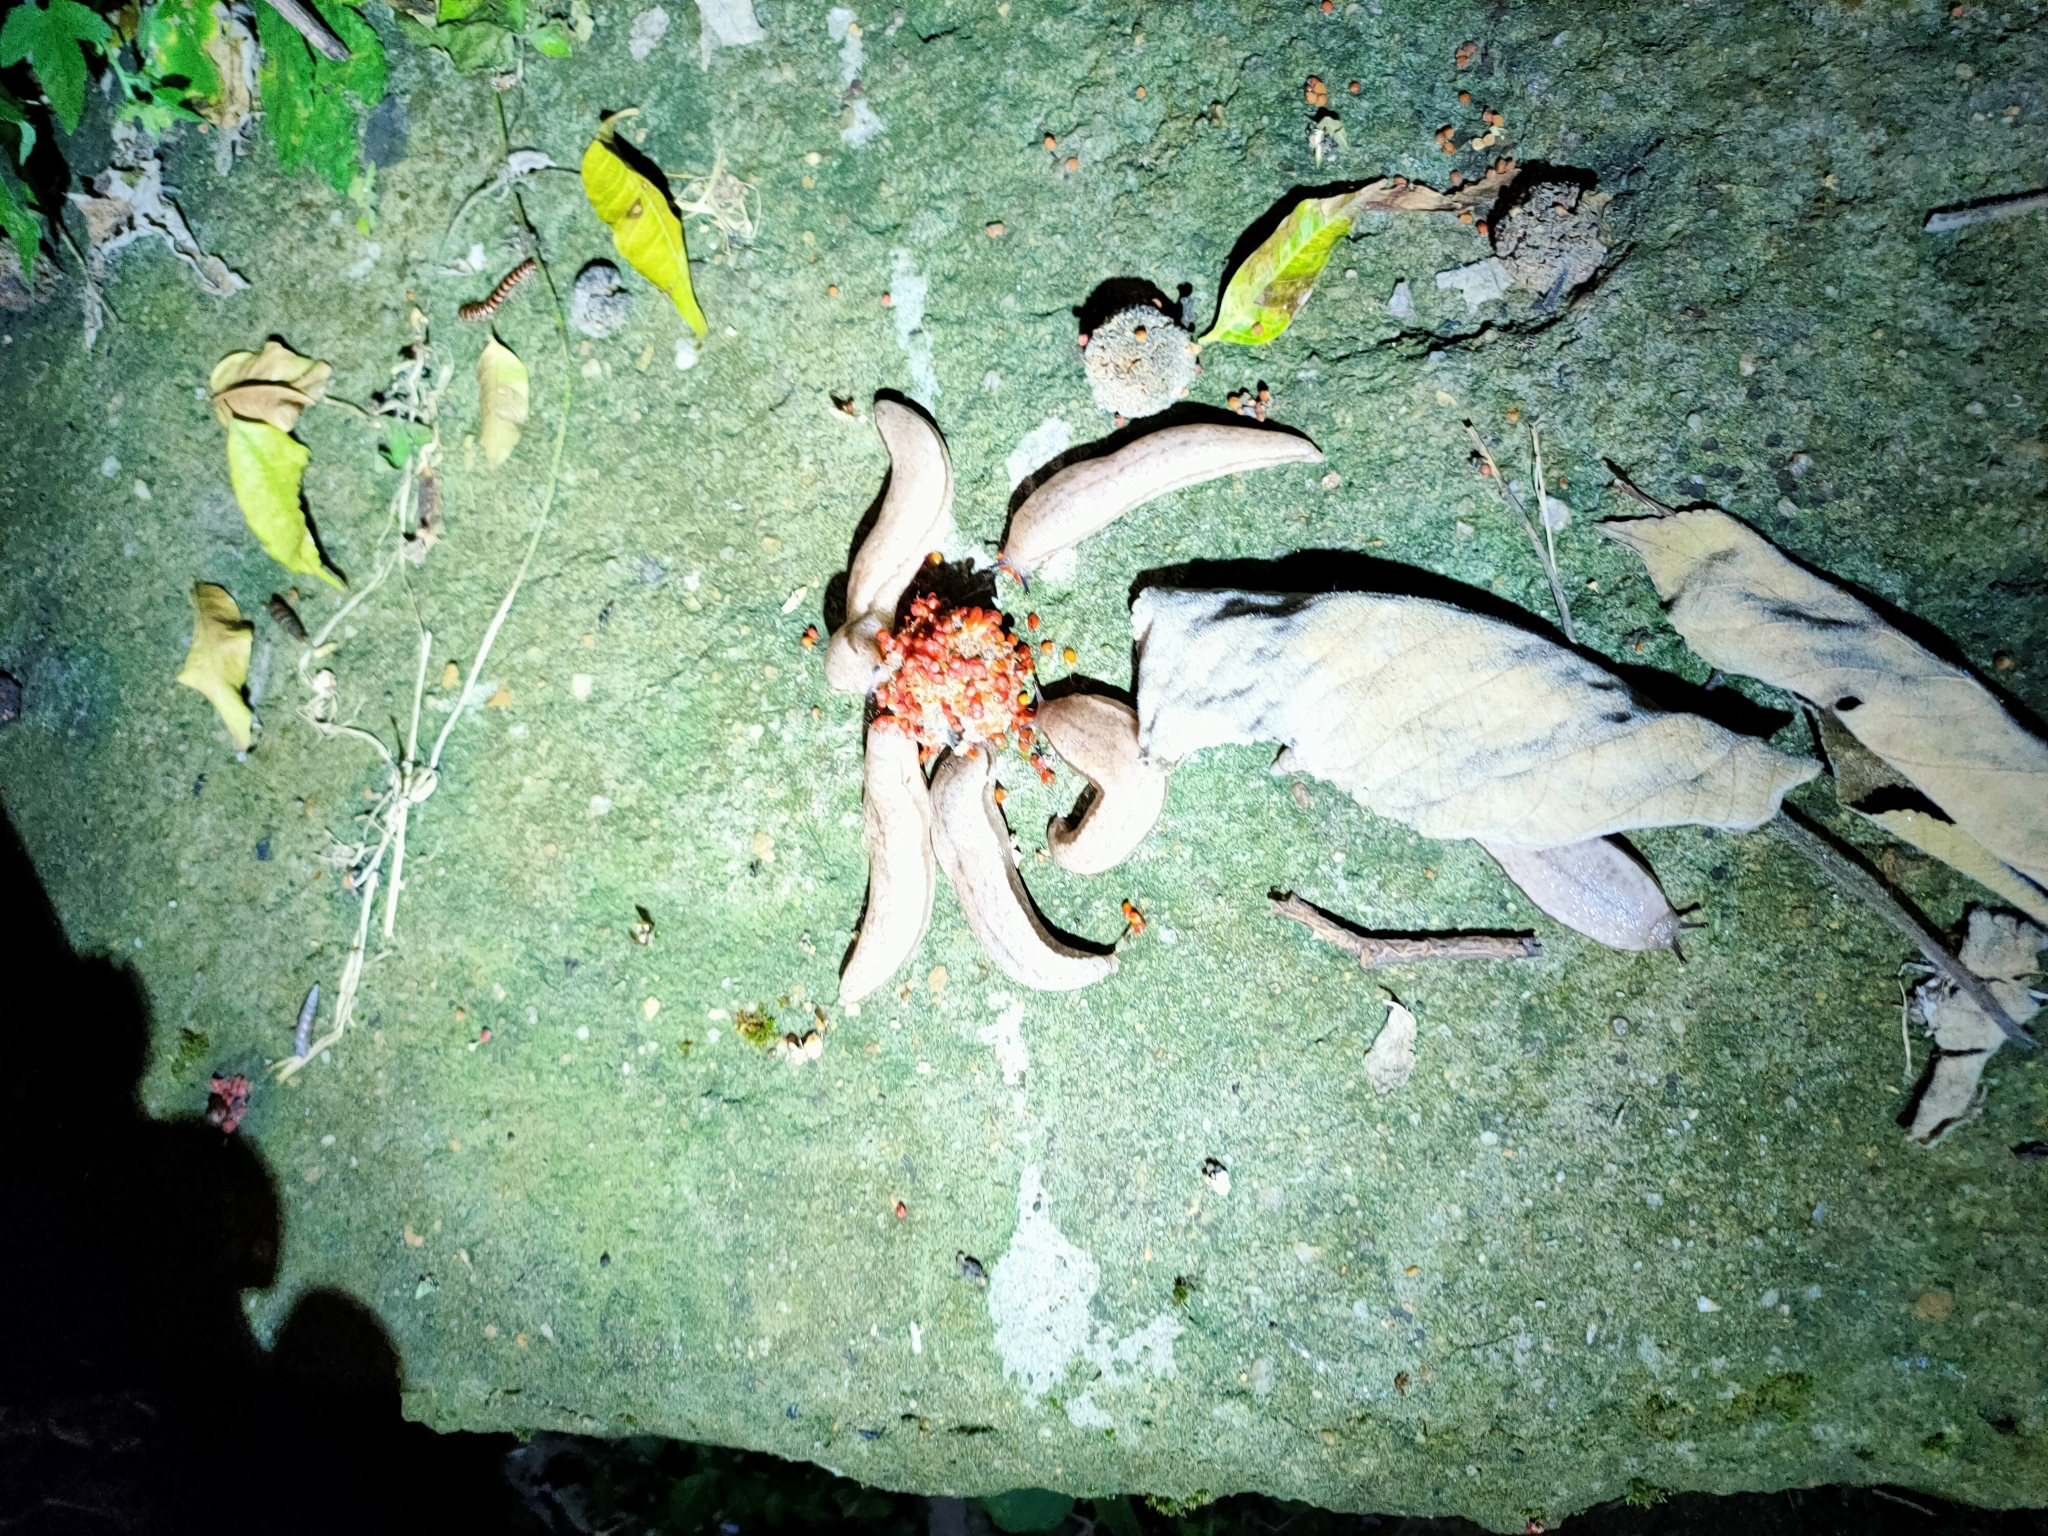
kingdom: Animalia
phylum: Mollusca
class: Gastropoda
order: Stylommatophora
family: Philomycidae
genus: Meghimatium
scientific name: Meghimatium bilineatum
